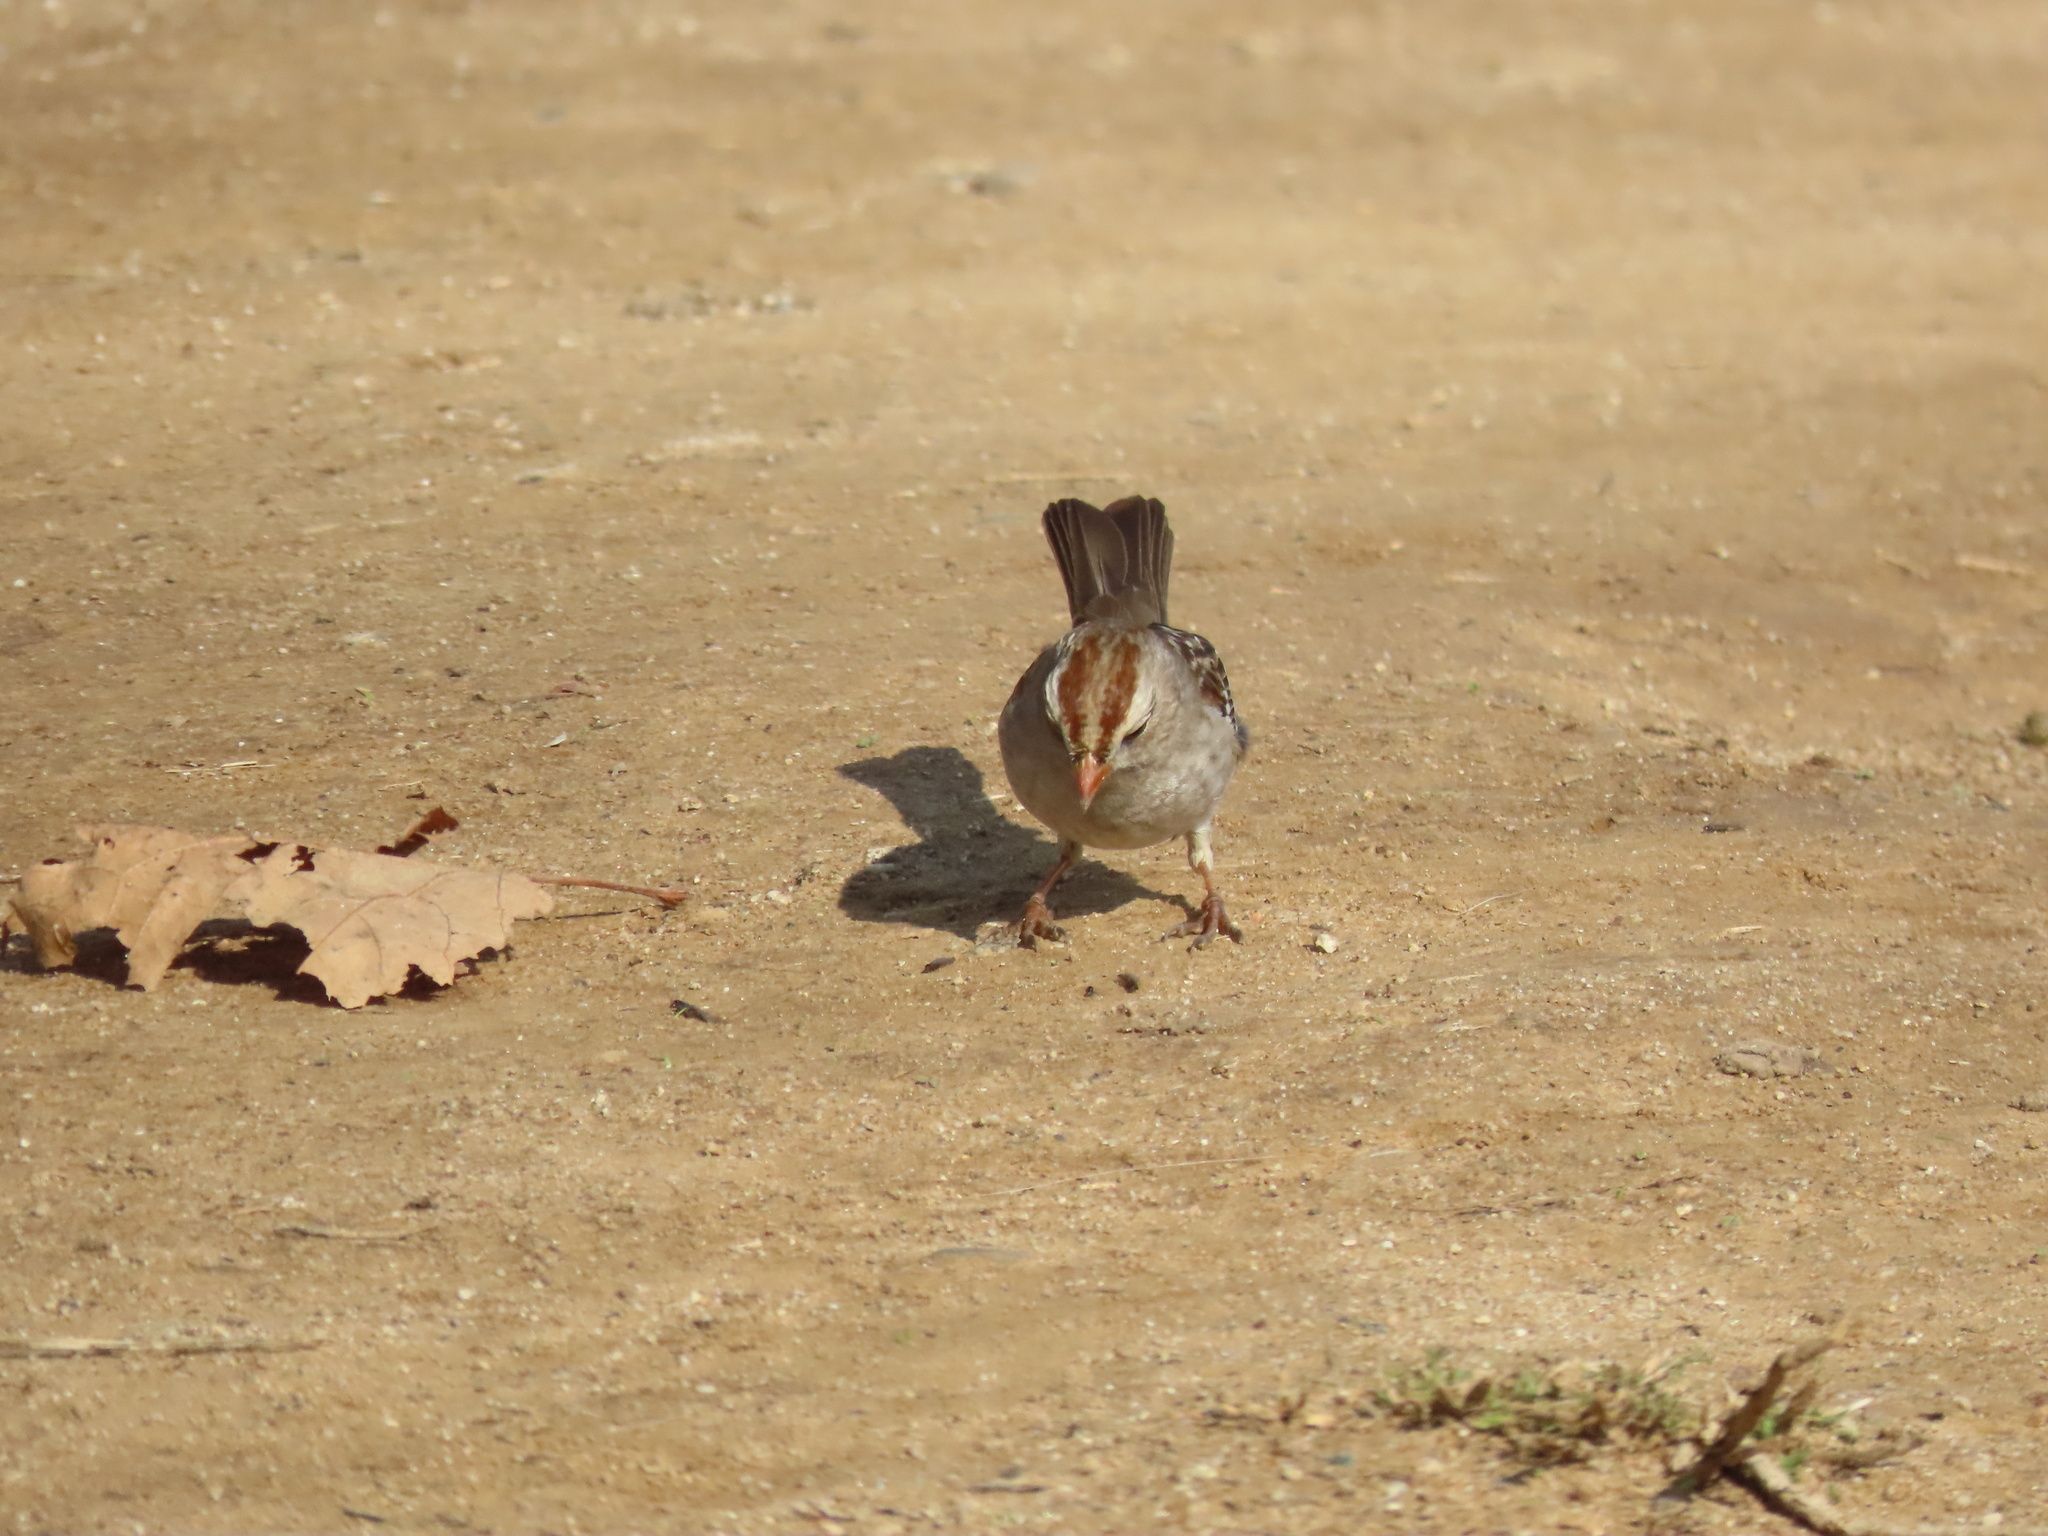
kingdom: Animalia
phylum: Chordata
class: Aves
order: Passeriformes
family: Passerellidae
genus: Zonotrichia
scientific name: Zonotrichia leucophrys
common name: White-crowned sparrow
